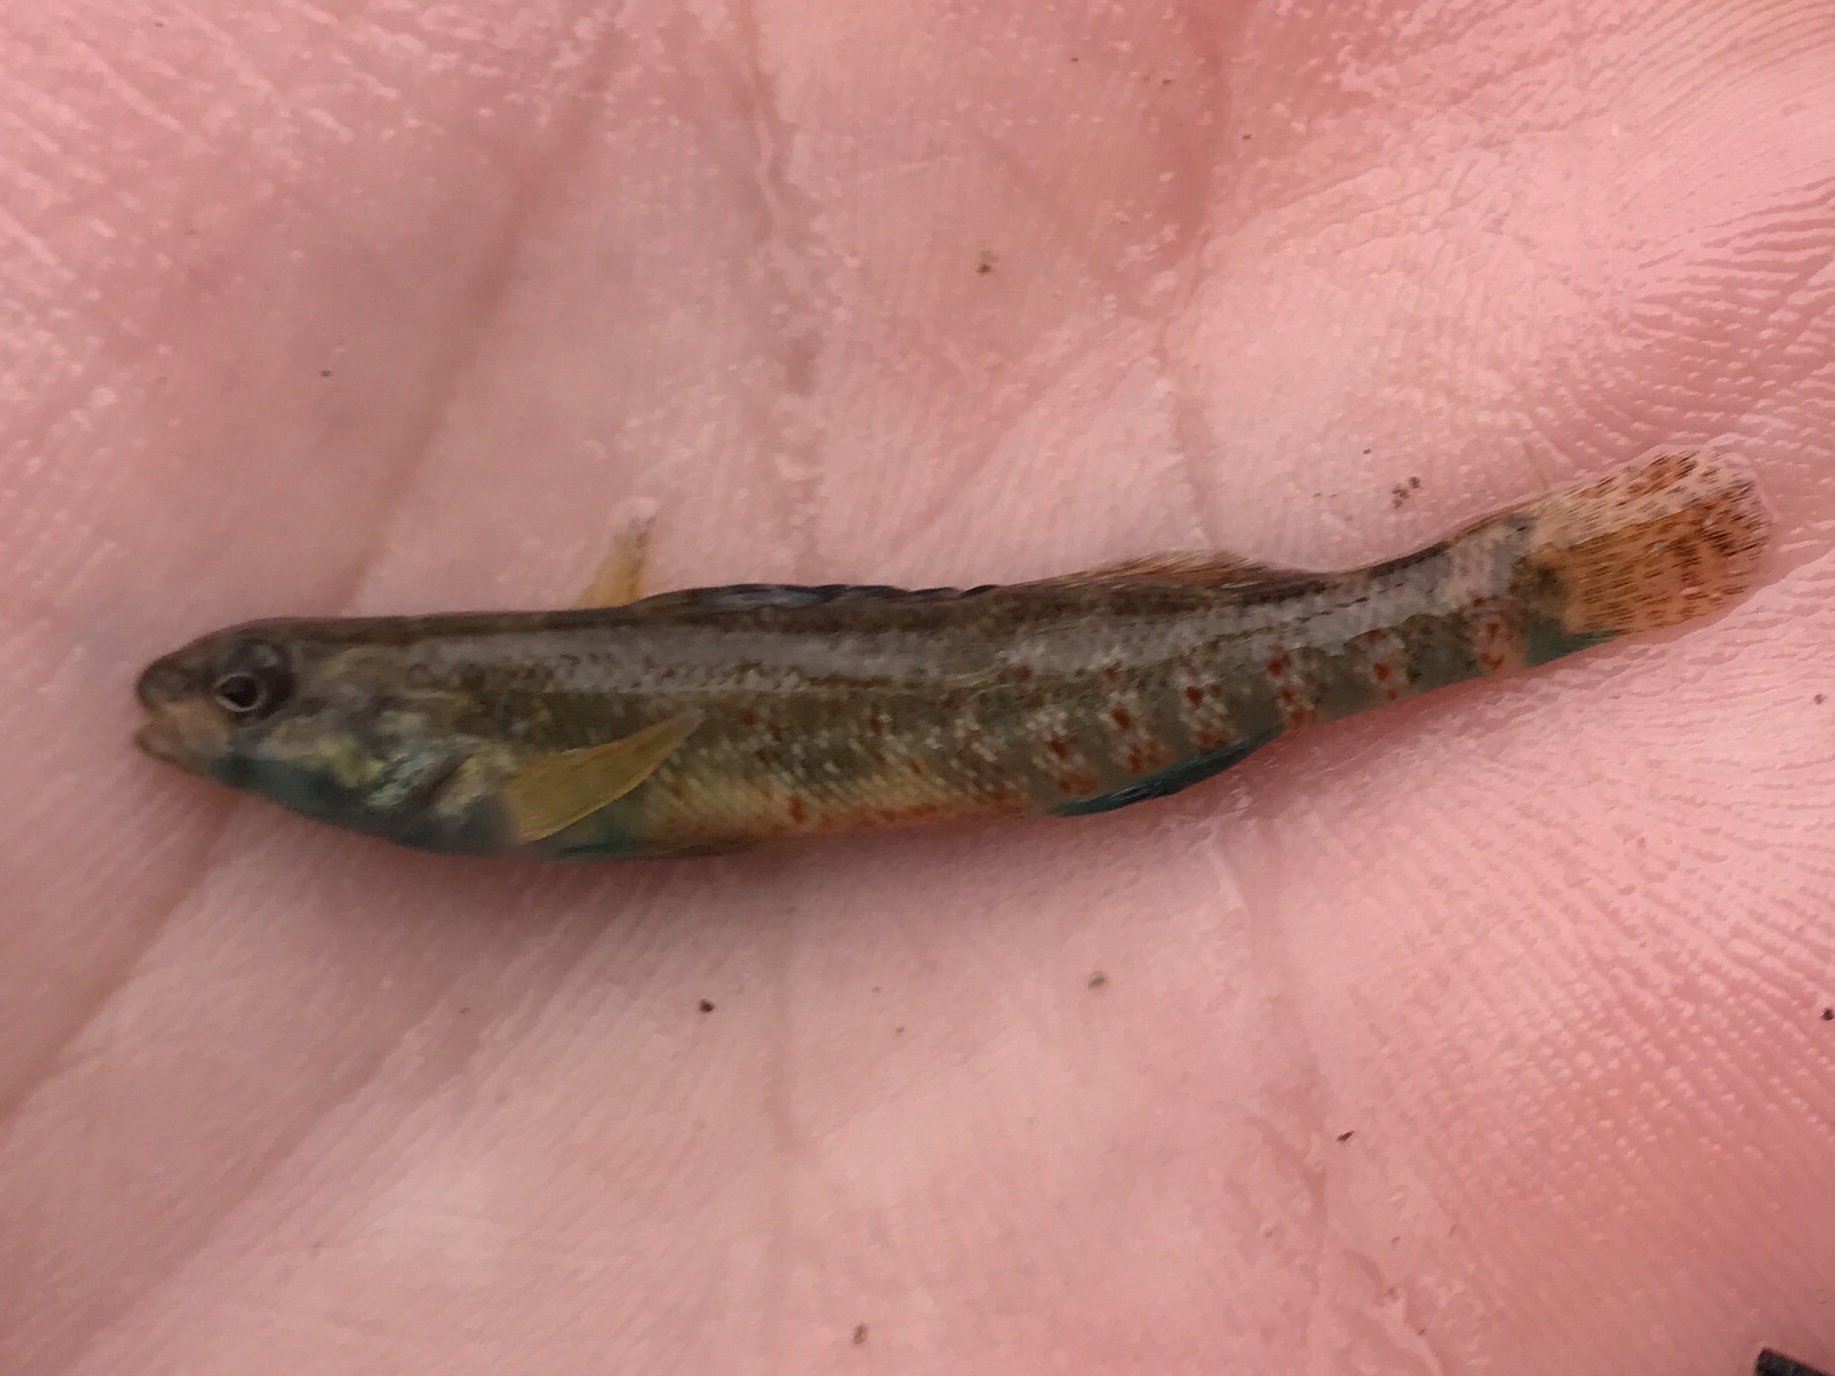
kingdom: Animalia
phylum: Chordata
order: Perciformes
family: Percidae
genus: Etheostoma
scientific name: Etheostoma lepidum
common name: Greenthroat darter
